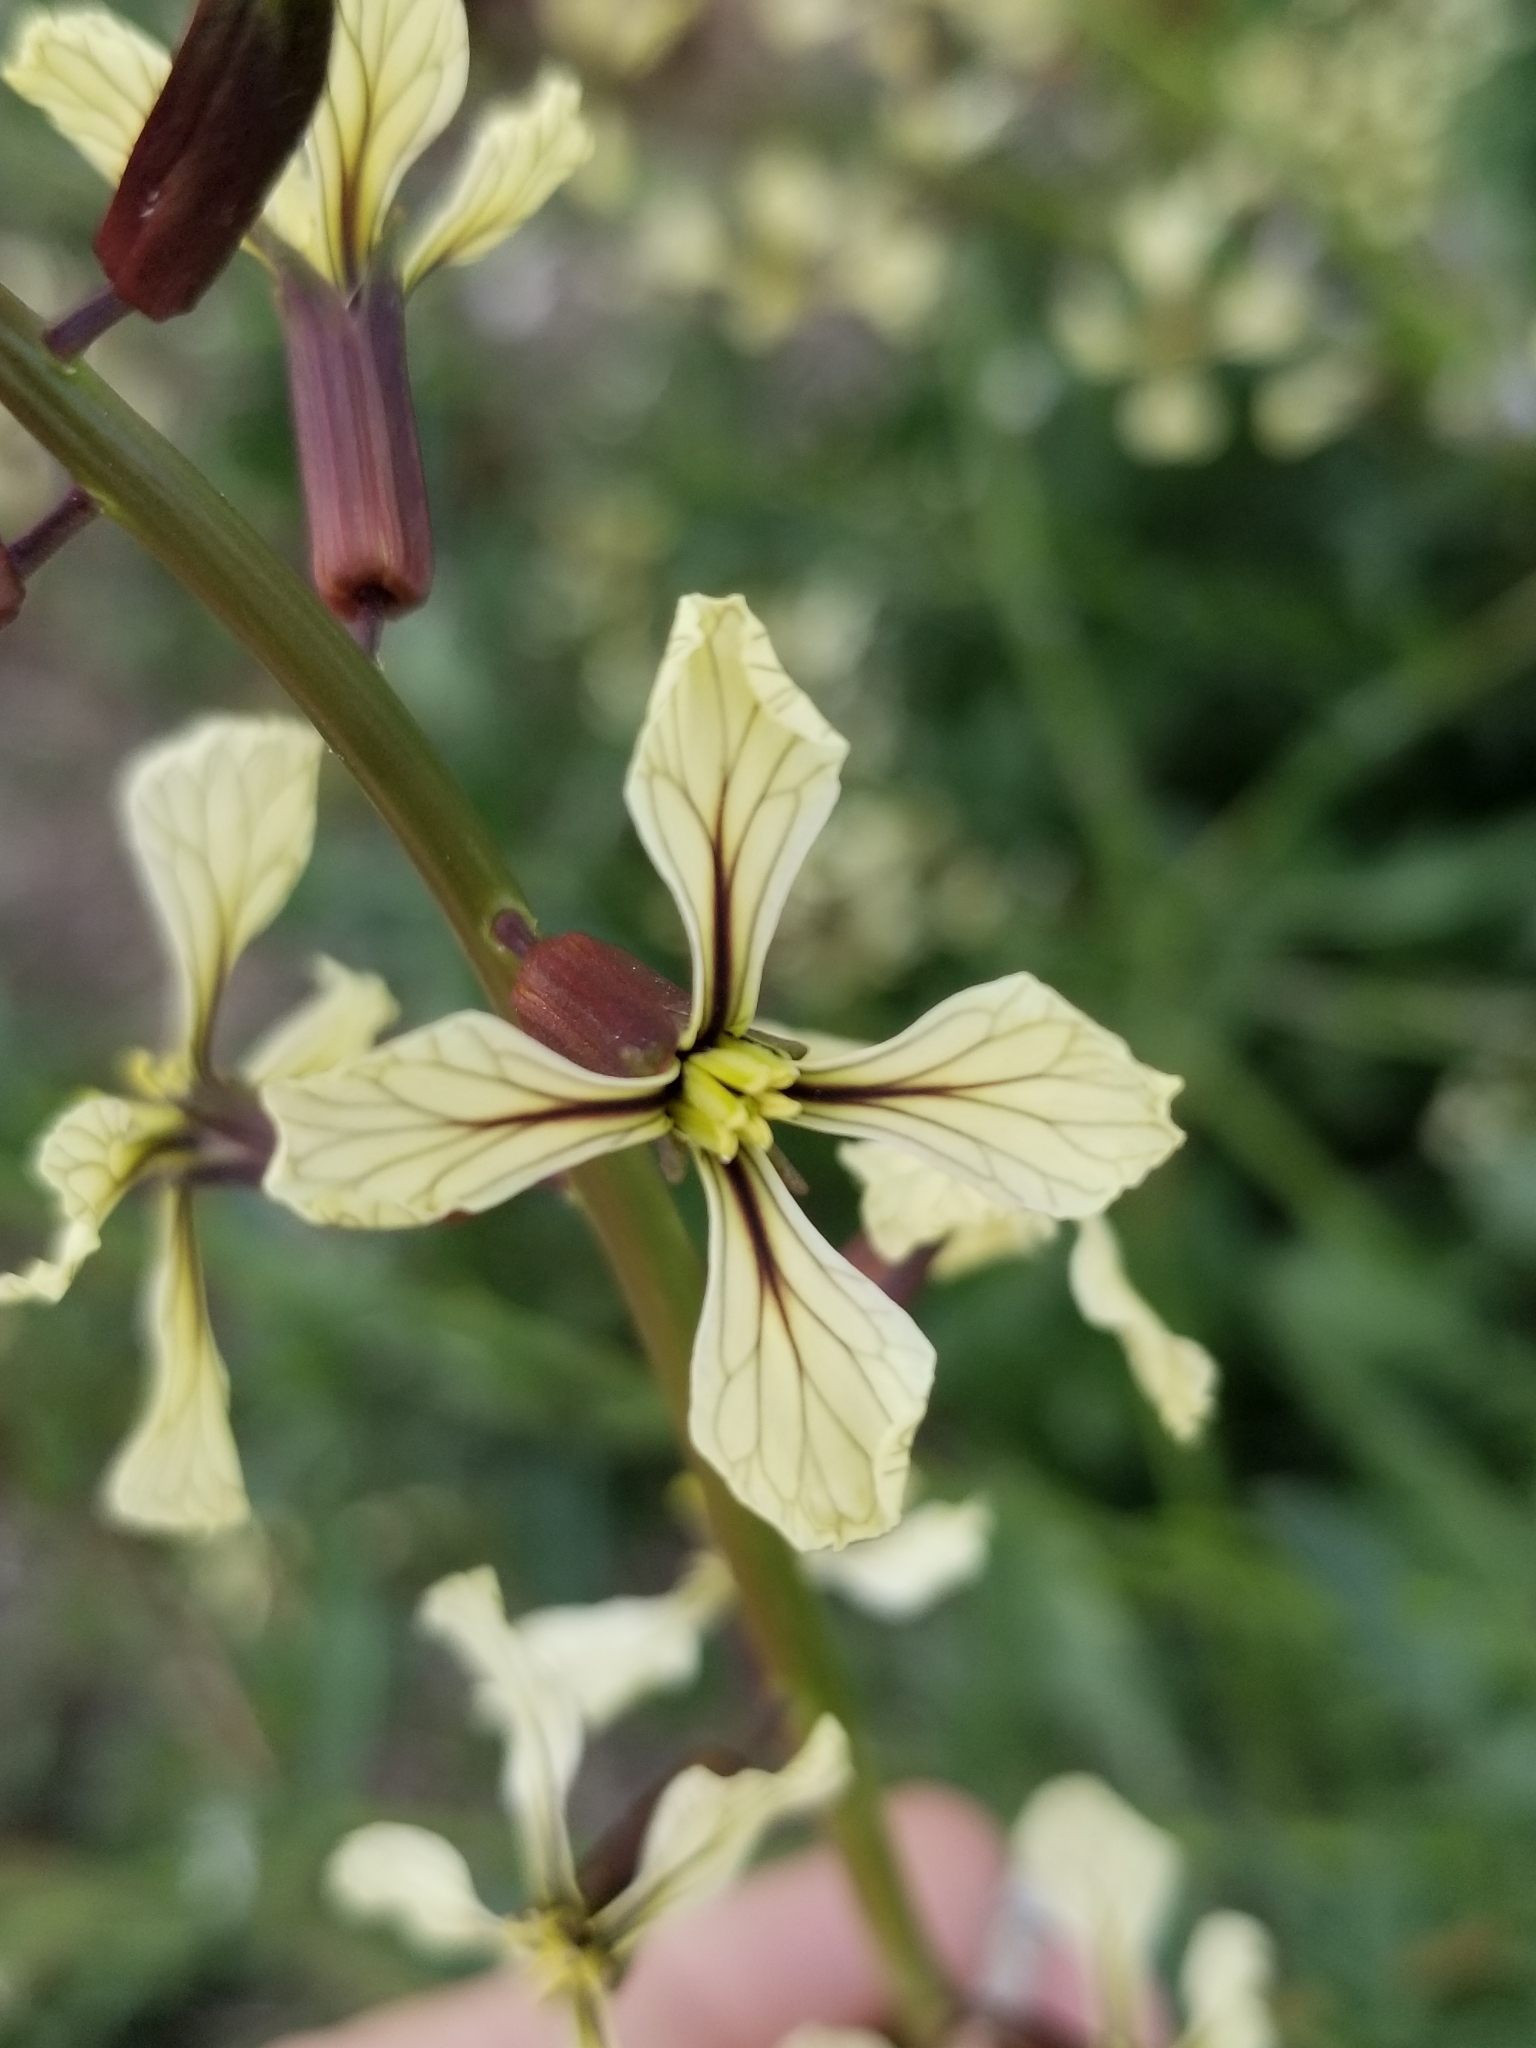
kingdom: Plantae
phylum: Tracheophyta
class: Magnoliopsida
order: Brassicales
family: Brassicaceae
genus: Eruca
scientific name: Eruca vesicaria
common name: Garden rocket
